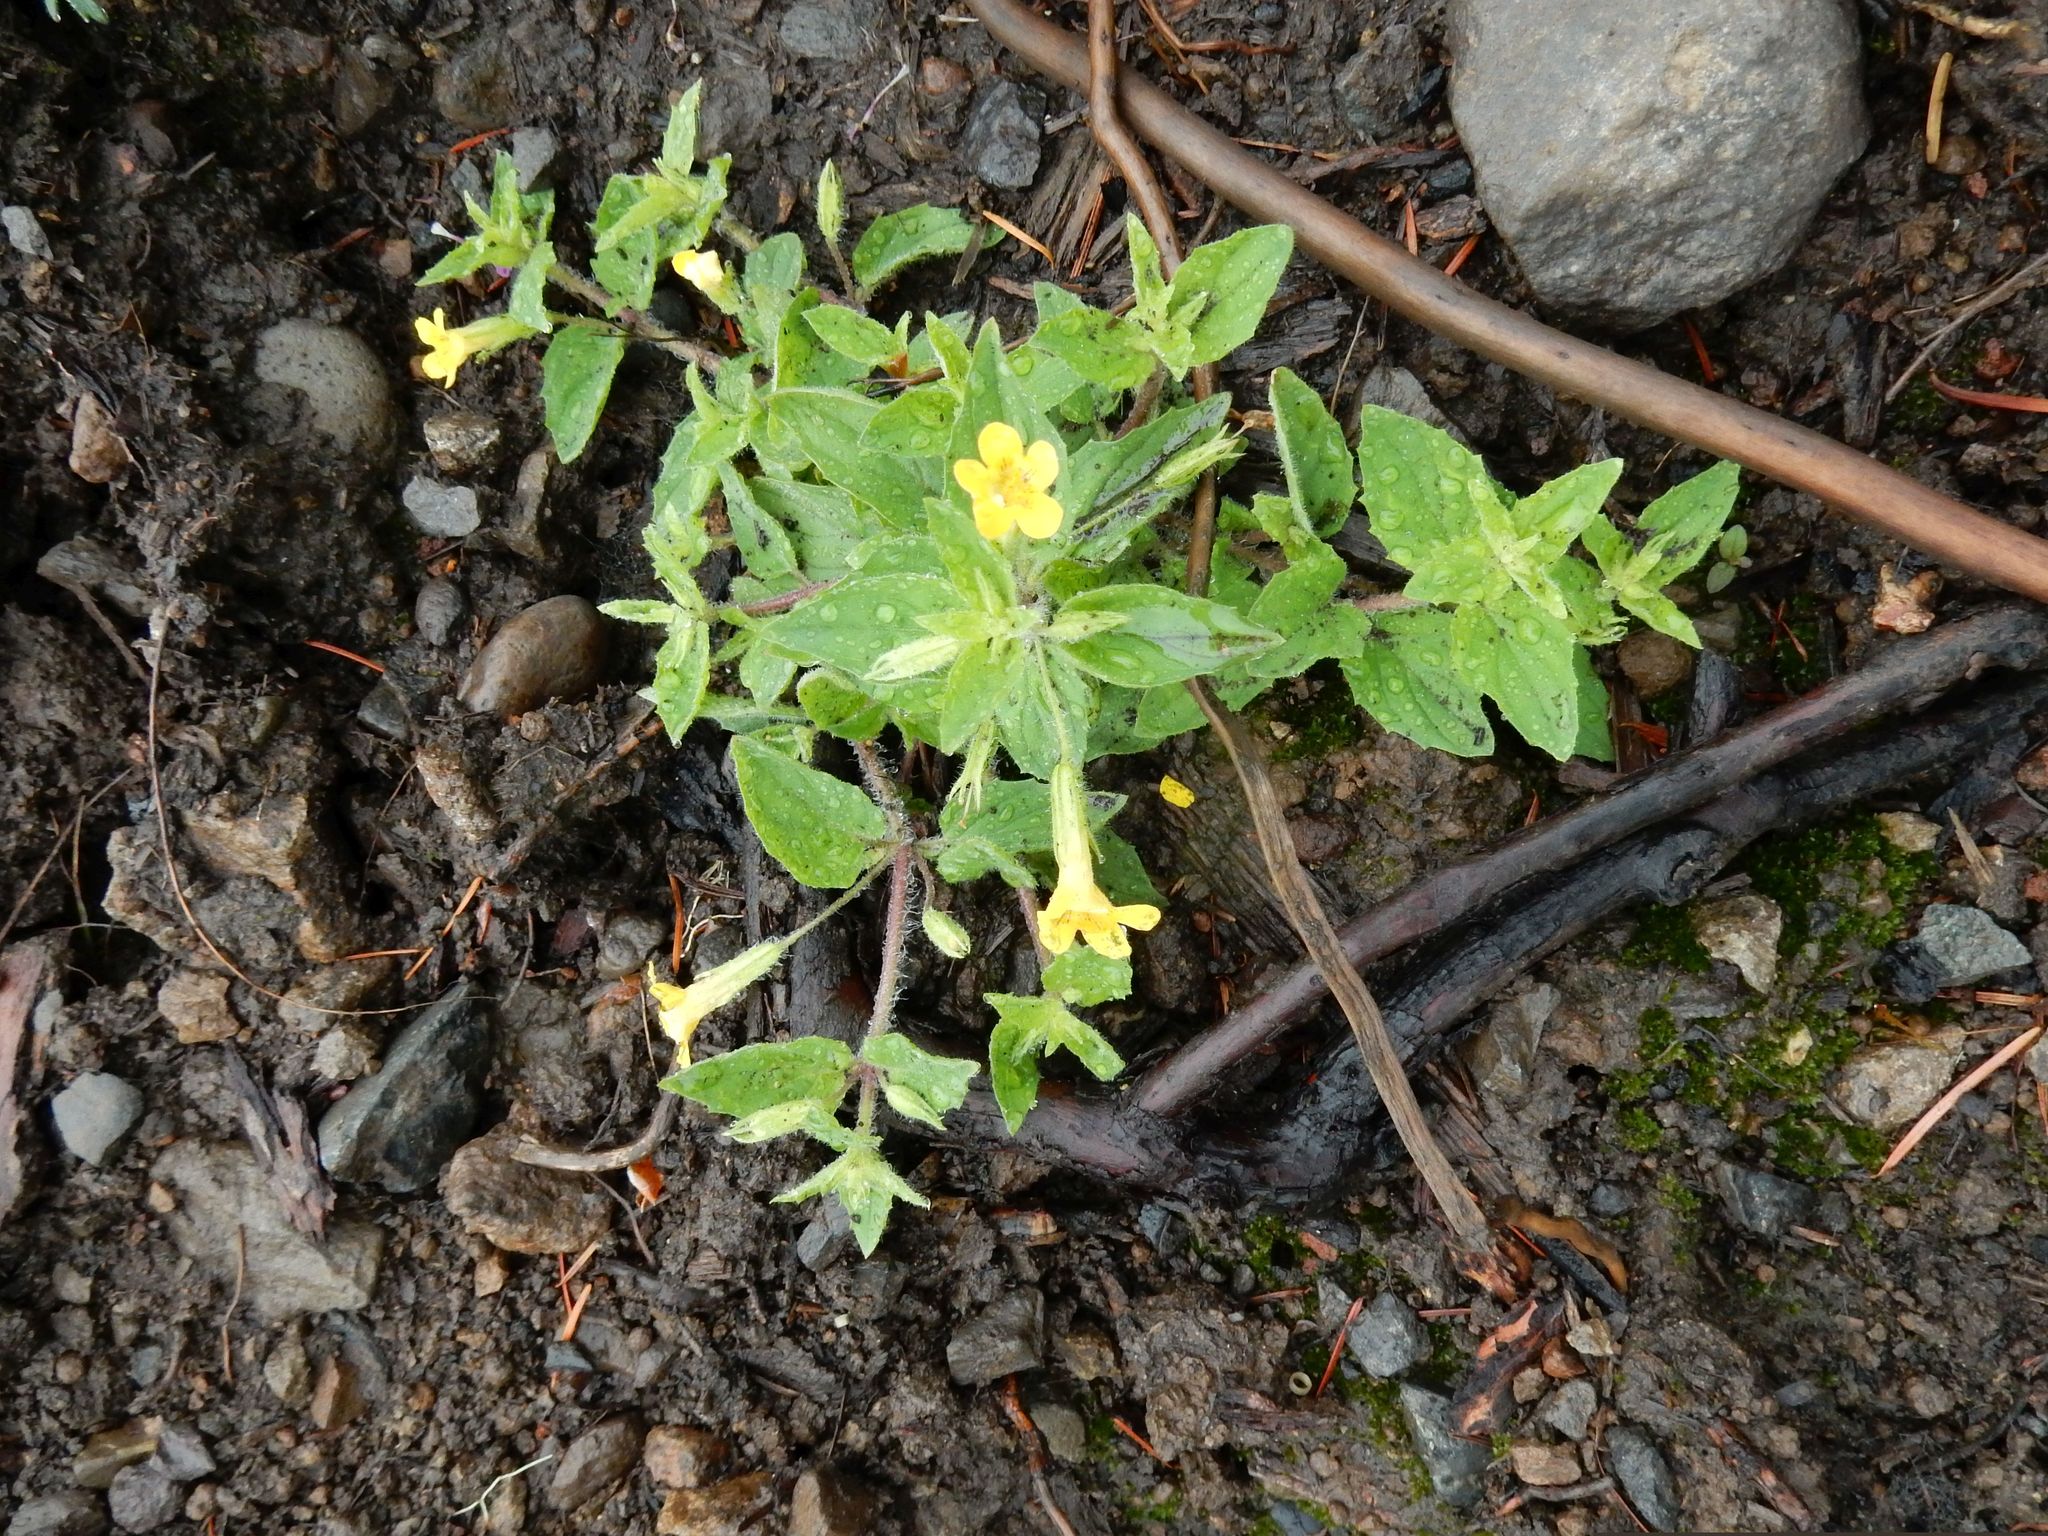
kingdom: Plantae
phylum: Tracheophyta
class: Magnoliopsida
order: Lamiales
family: Phrymaceae
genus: Erythranthe
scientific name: Erythranthe ptilota
